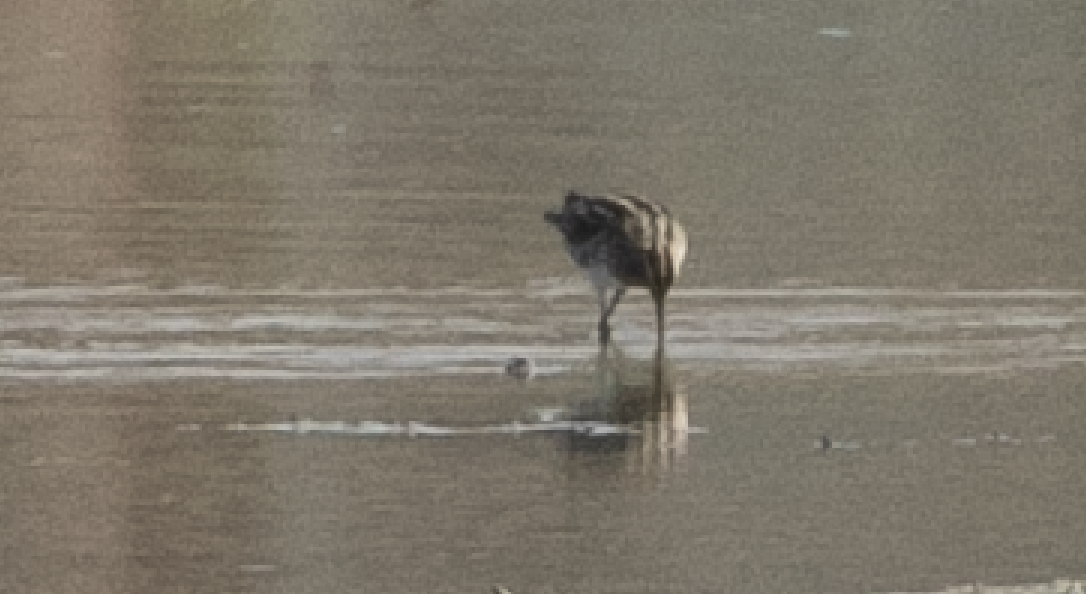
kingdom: Animalia
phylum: Chordata
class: Aves
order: Charadriiformes
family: Scolopacidae
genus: Gallinago
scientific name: Gallinago gallinago
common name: Common snipe
